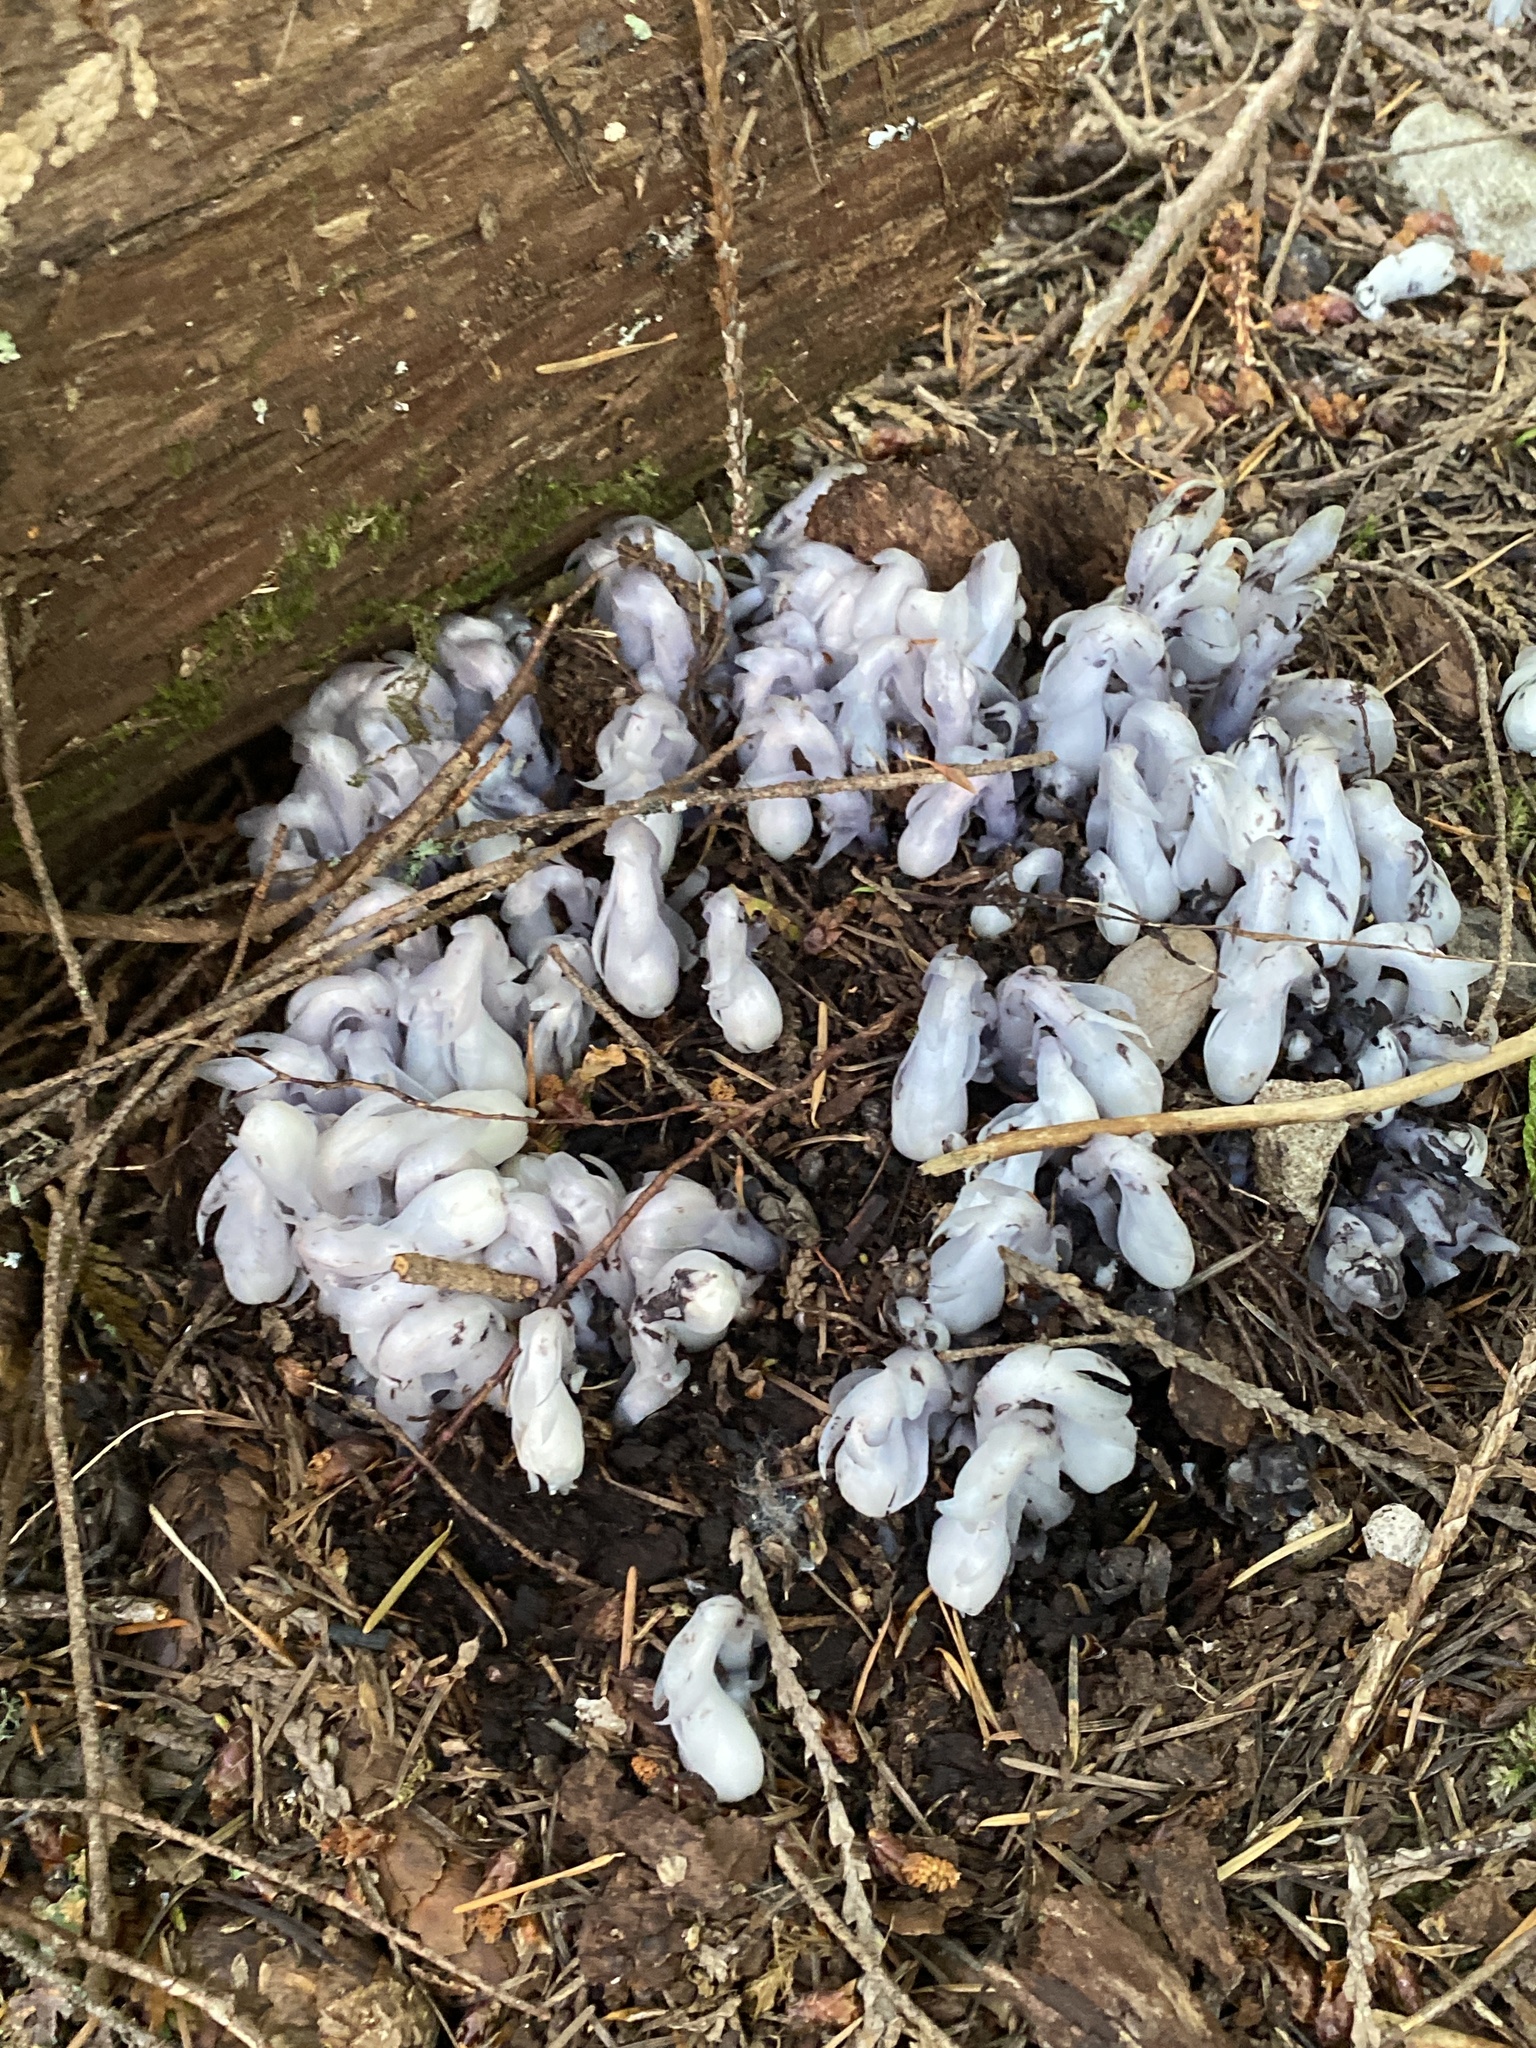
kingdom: Plantae
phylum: Tracheophyta
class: Magnoliopsida
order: Ericales
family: Ericaceae
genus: Monotropa
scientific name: Monotropa uniflora
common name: Convulsion root
